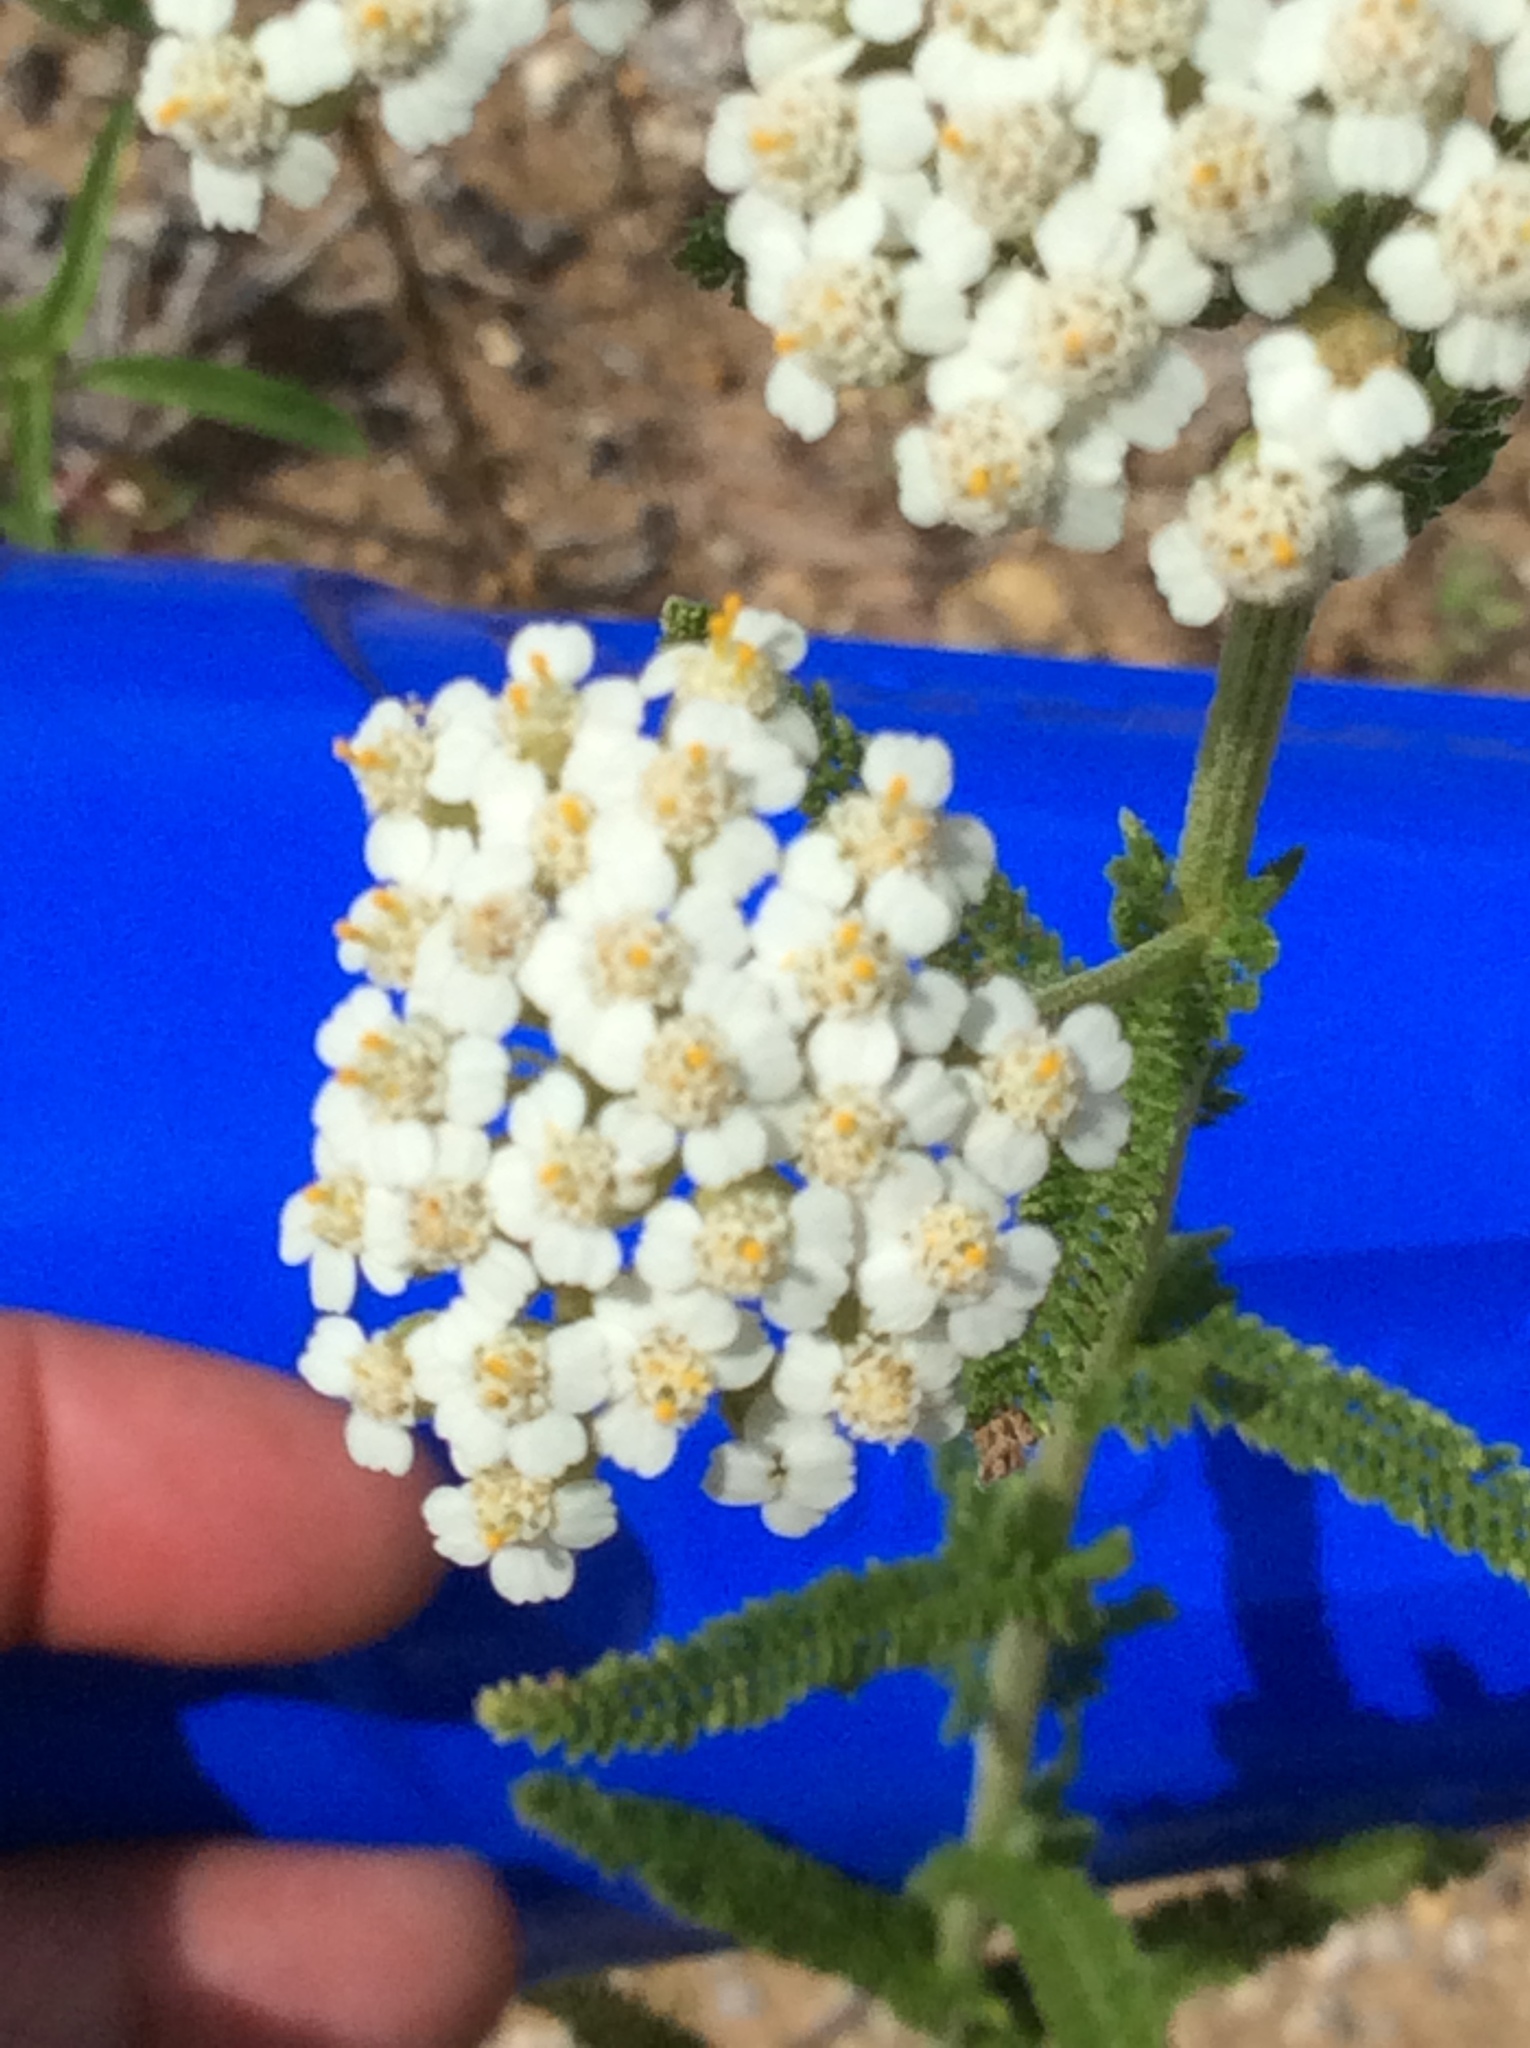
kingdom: Plantae
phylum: Tracheophyta
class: Magnoliopsida
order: Asterales
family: Asteraceae
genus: Achillea
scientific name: Achillea millefolium
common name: Yarrow
